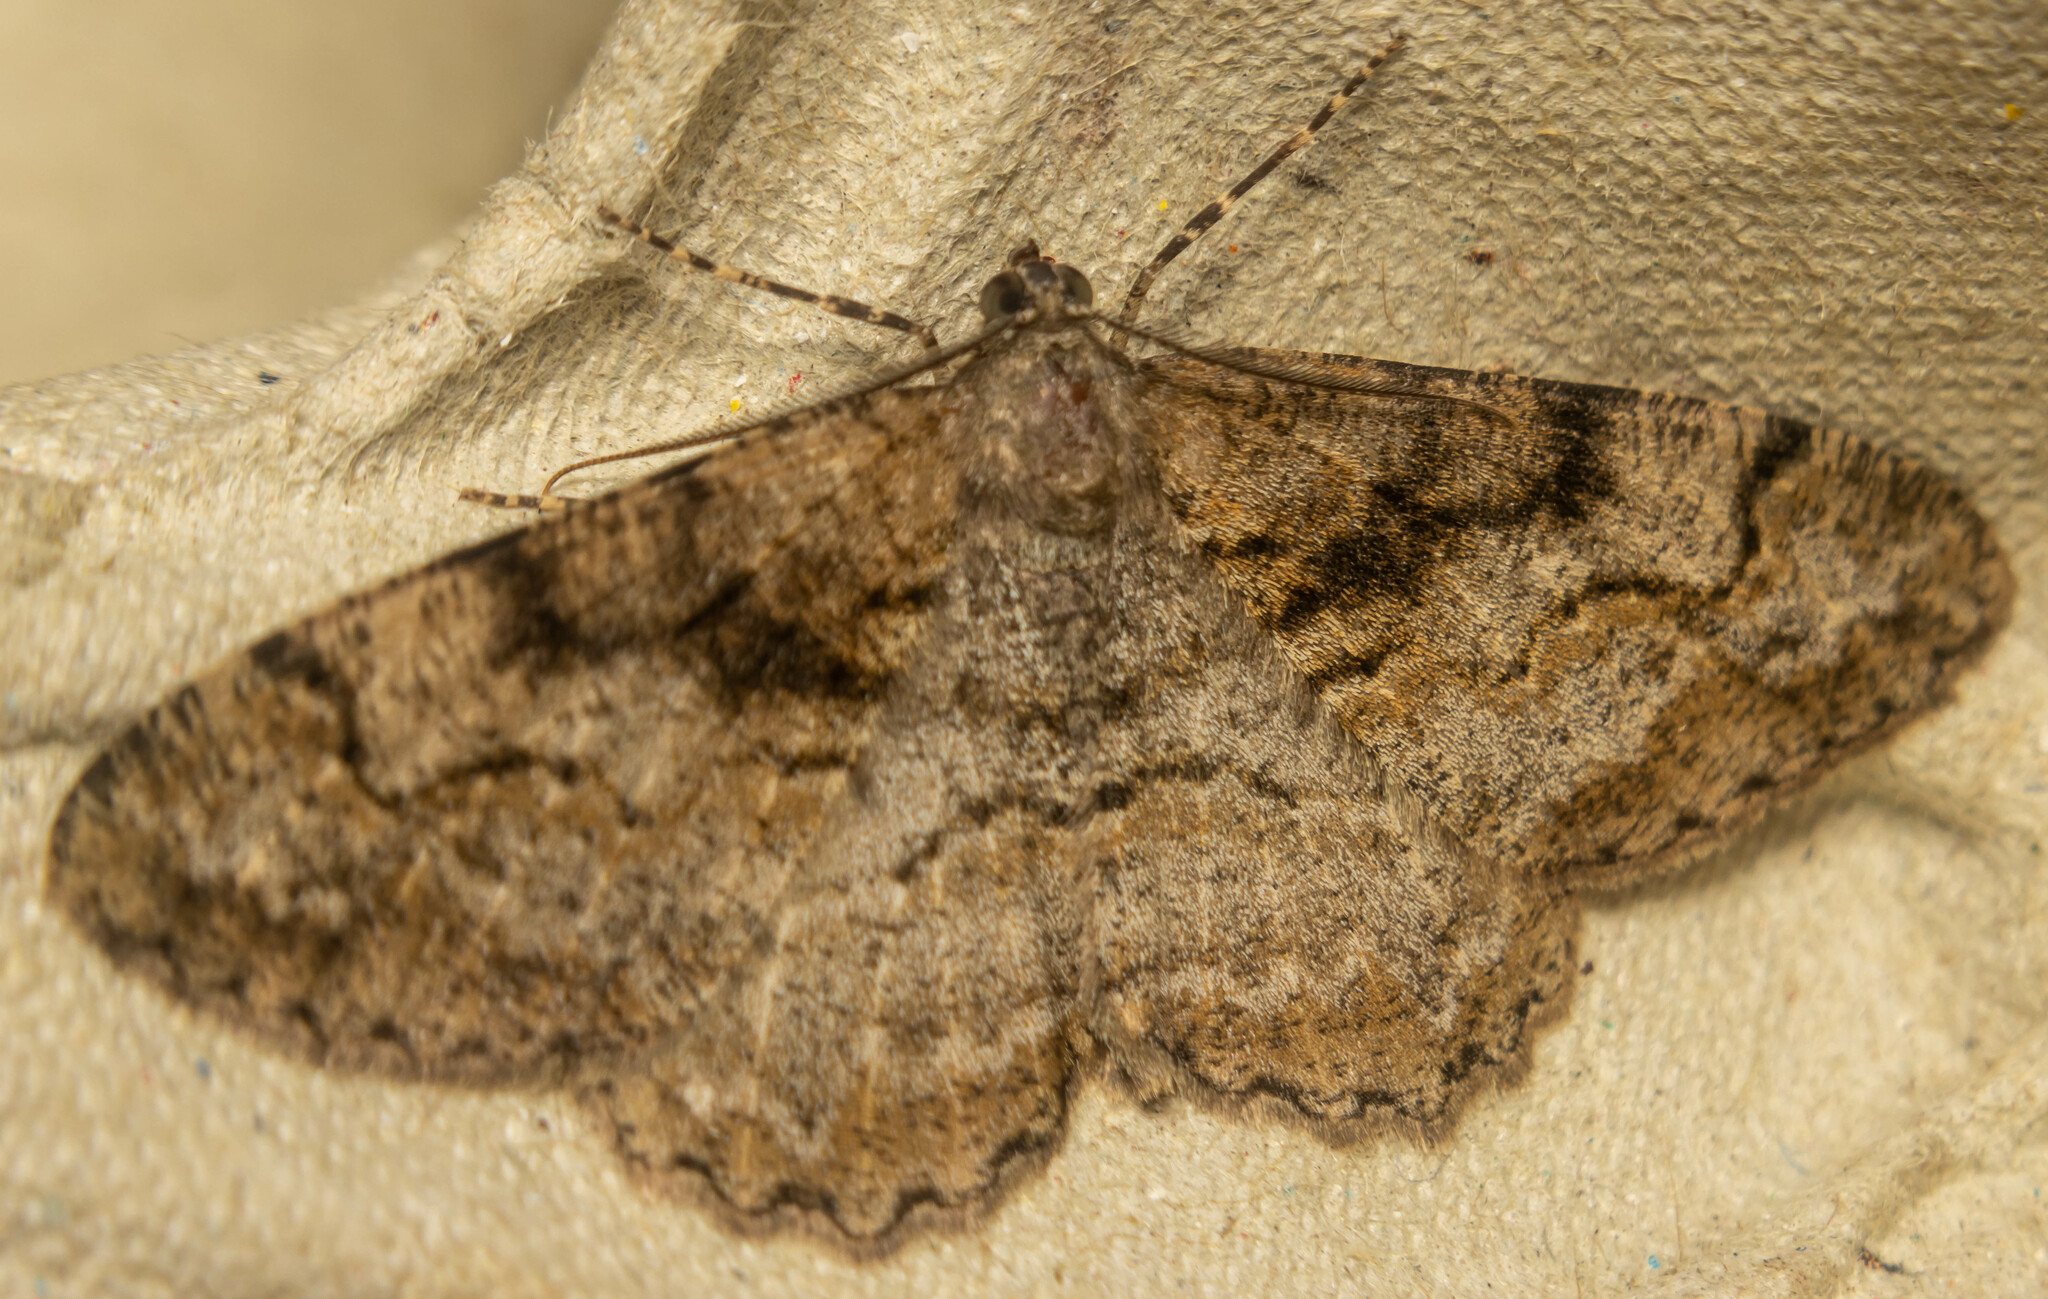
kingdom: Animalia
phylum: Arthropoda
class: Insecta
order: Lepidoptera
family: Geometridae
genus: Alcis
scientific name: Alcis repandata
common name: Mottled beauty
